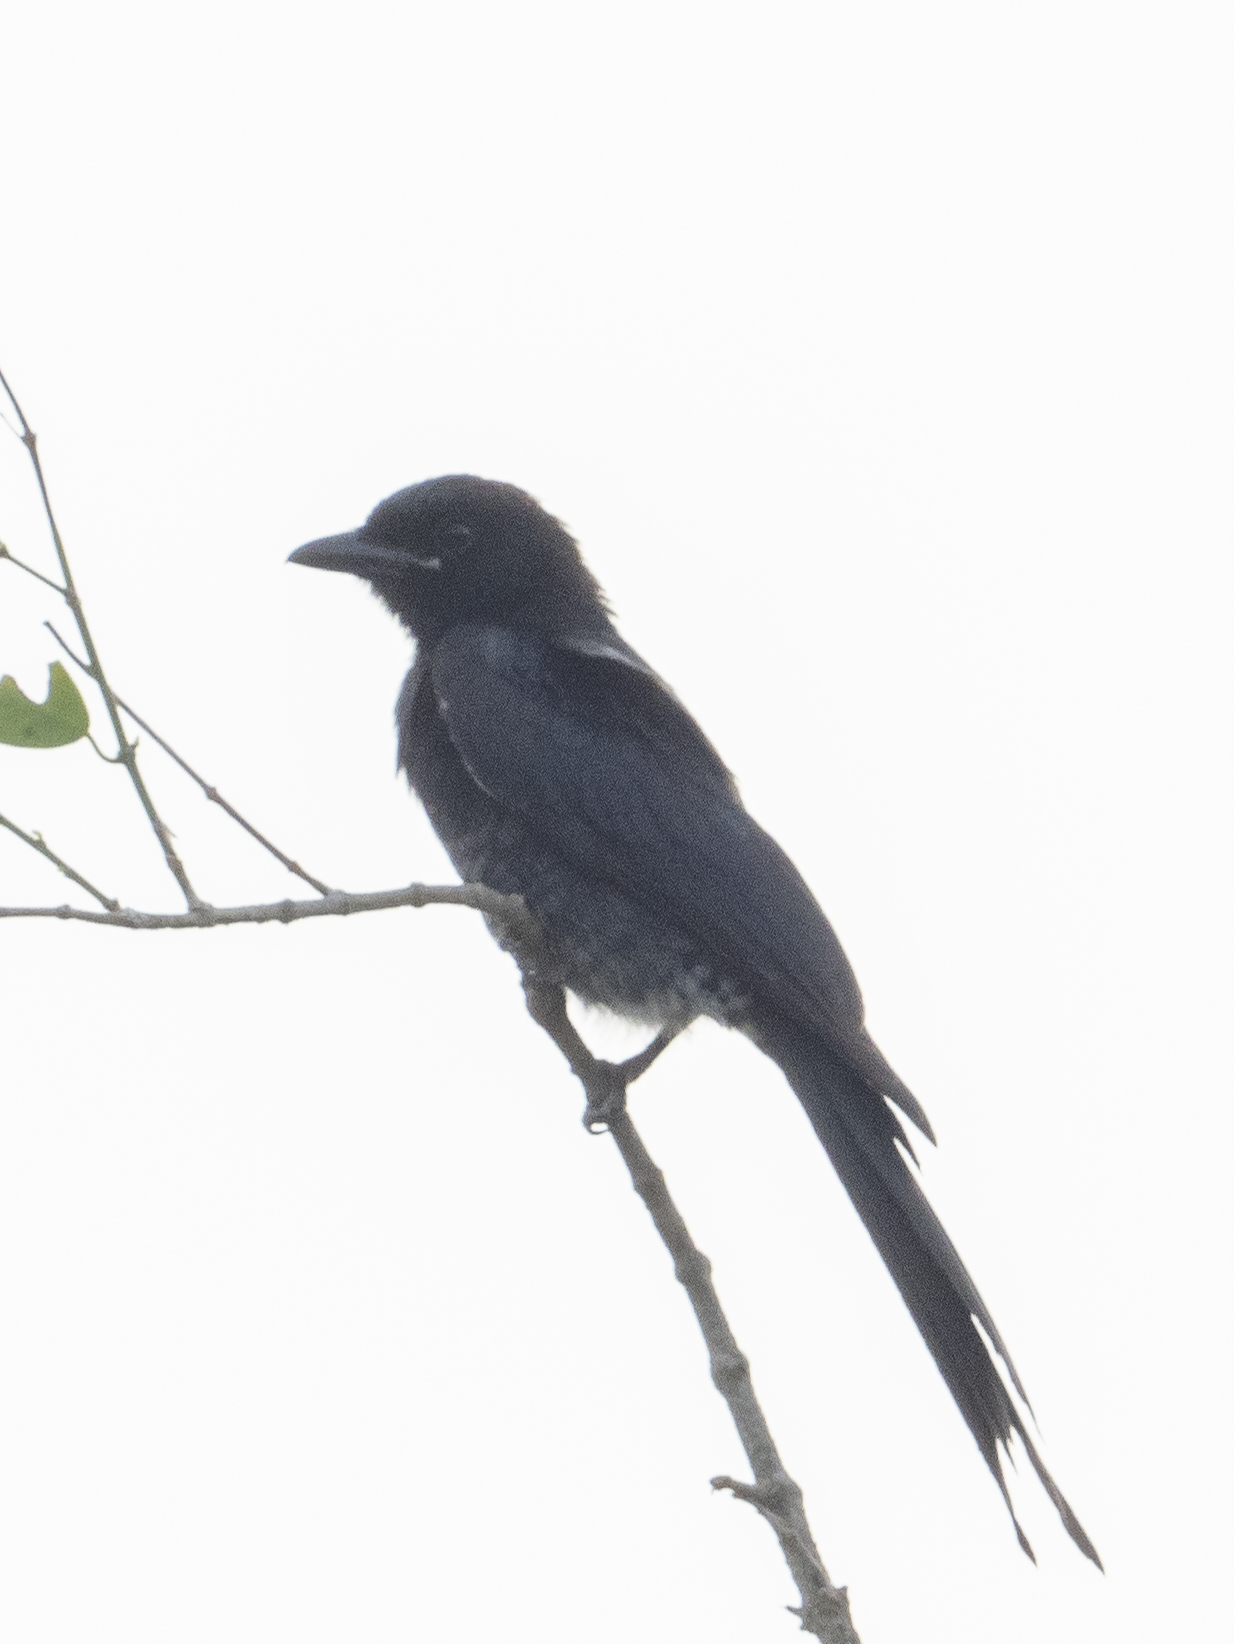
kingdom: Animalia
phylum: Chordata
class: Aves
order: Passeriformes
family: Dicruridae
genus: Dicrurus
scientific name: Dicrurus macrocercus
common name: Black drongo
